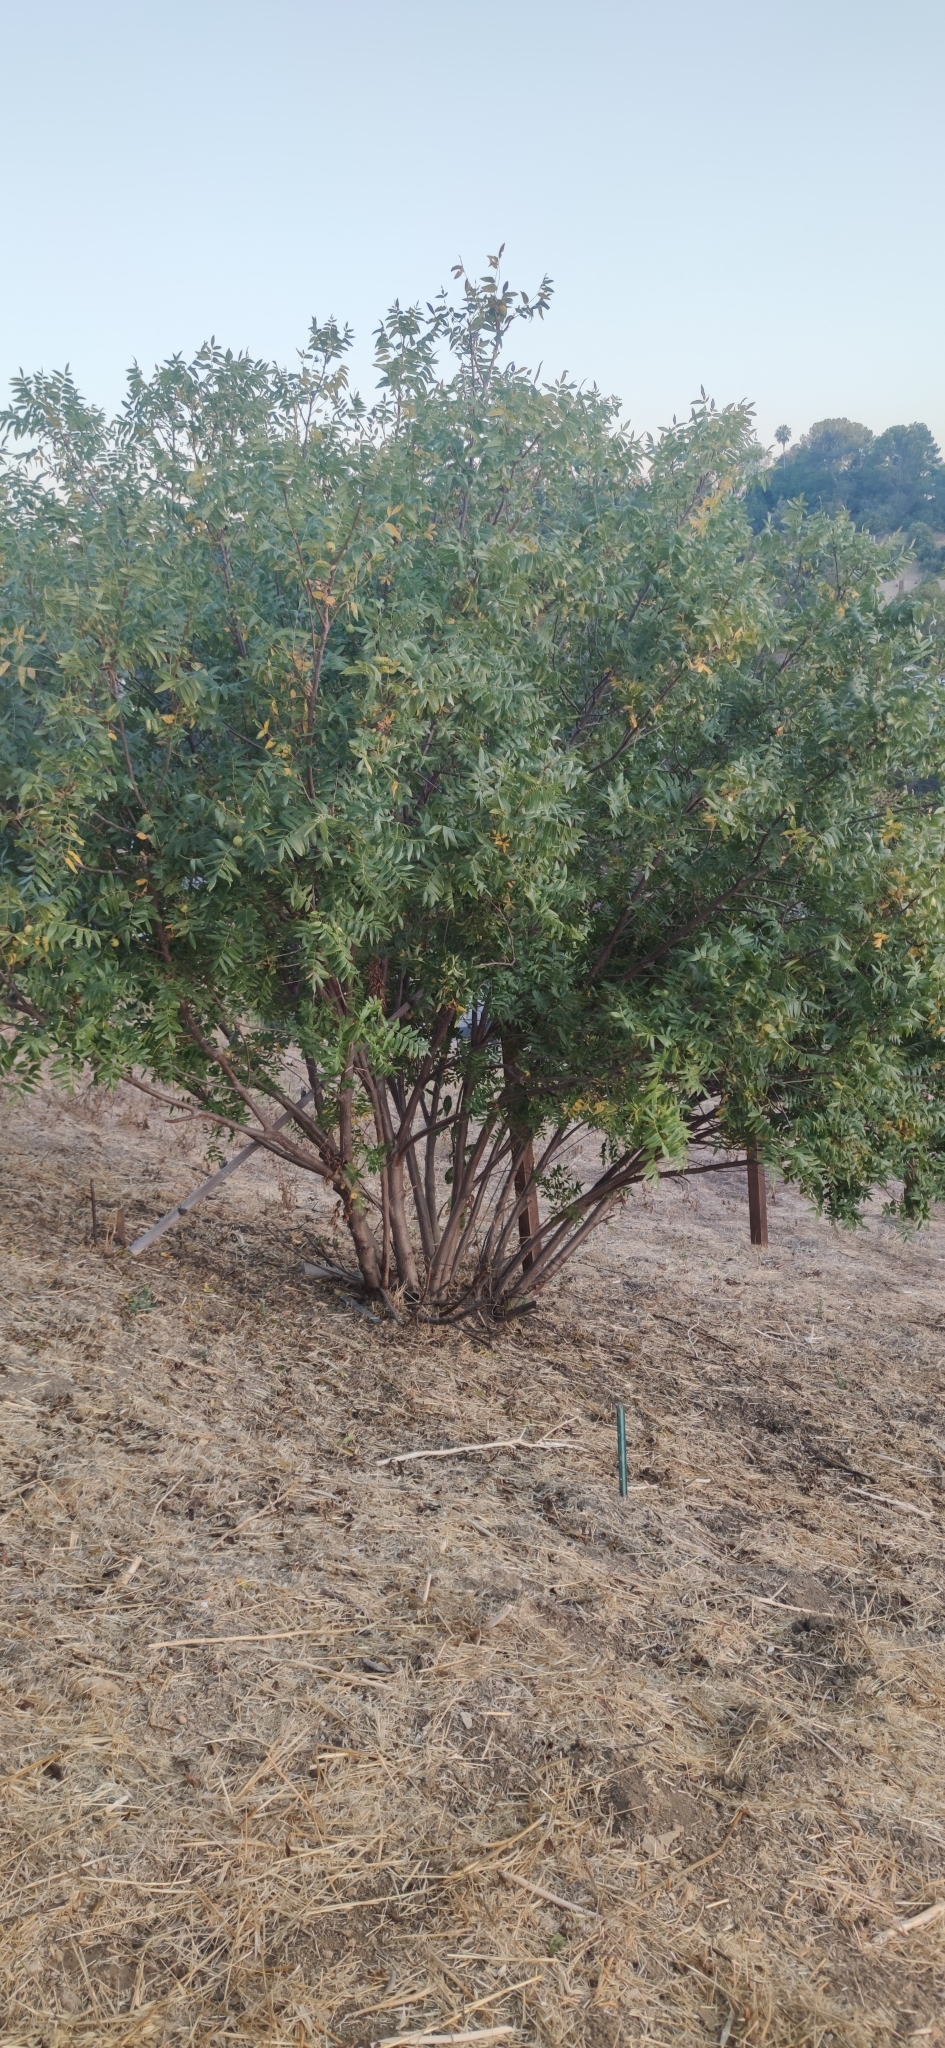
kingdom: Plantae
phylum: Tracheophyta
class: Magnoliopsida
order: Fagales
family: Juglandaceae
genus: Juglans
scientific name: Juglans californica
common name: Southern california black walnut
